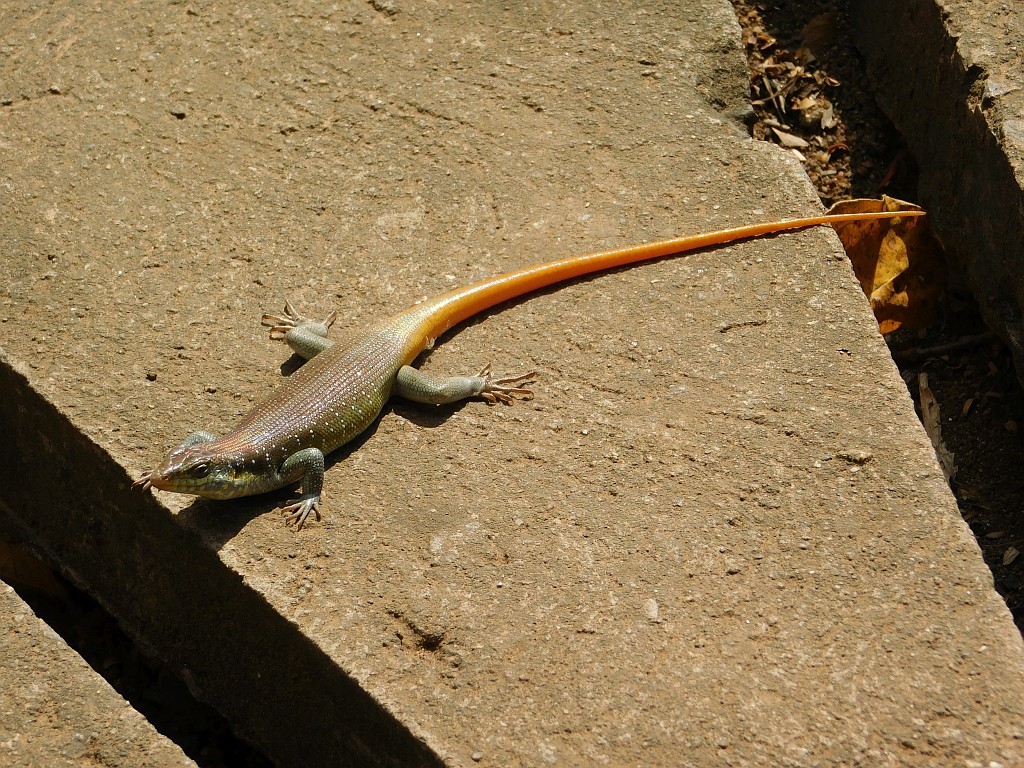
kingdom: Animalia
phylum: Chordata
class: Squamata
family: Scincidae
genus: Trachylepis
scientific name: Trachylepis margaritifera
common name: Rainbow skink
